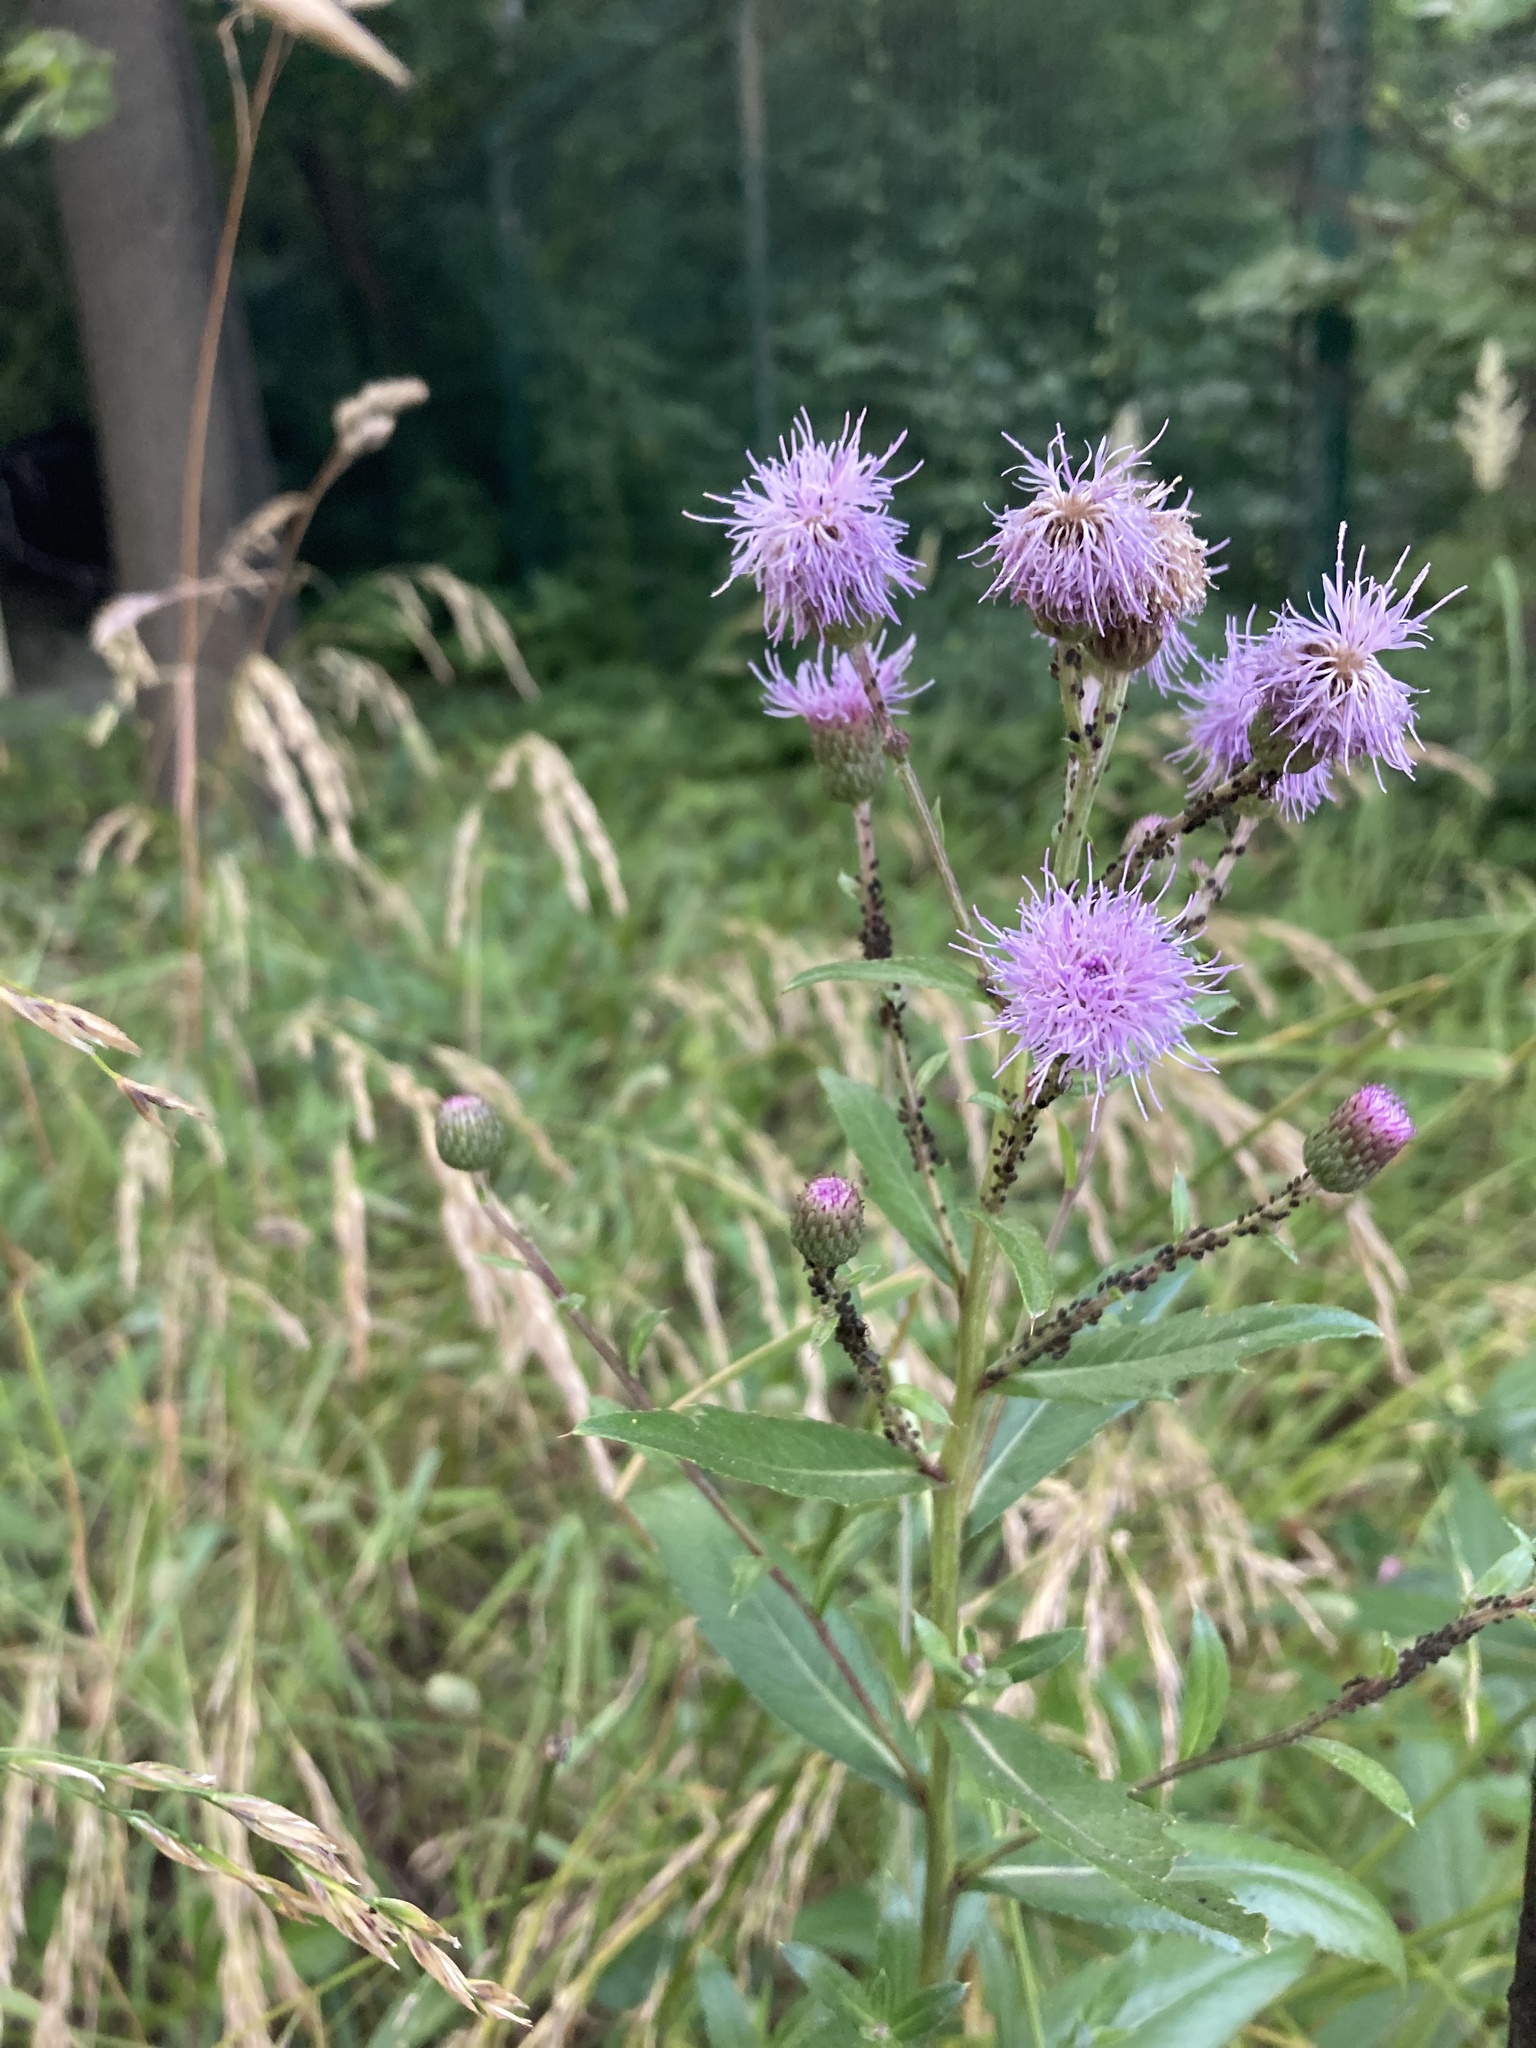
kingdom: Plantae
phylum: Tracheophyta
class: Magnoliopsida
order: Asterales
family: Asteraceae
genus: Cirsium
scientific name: Cirsium arvense
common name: Creeping thistle
